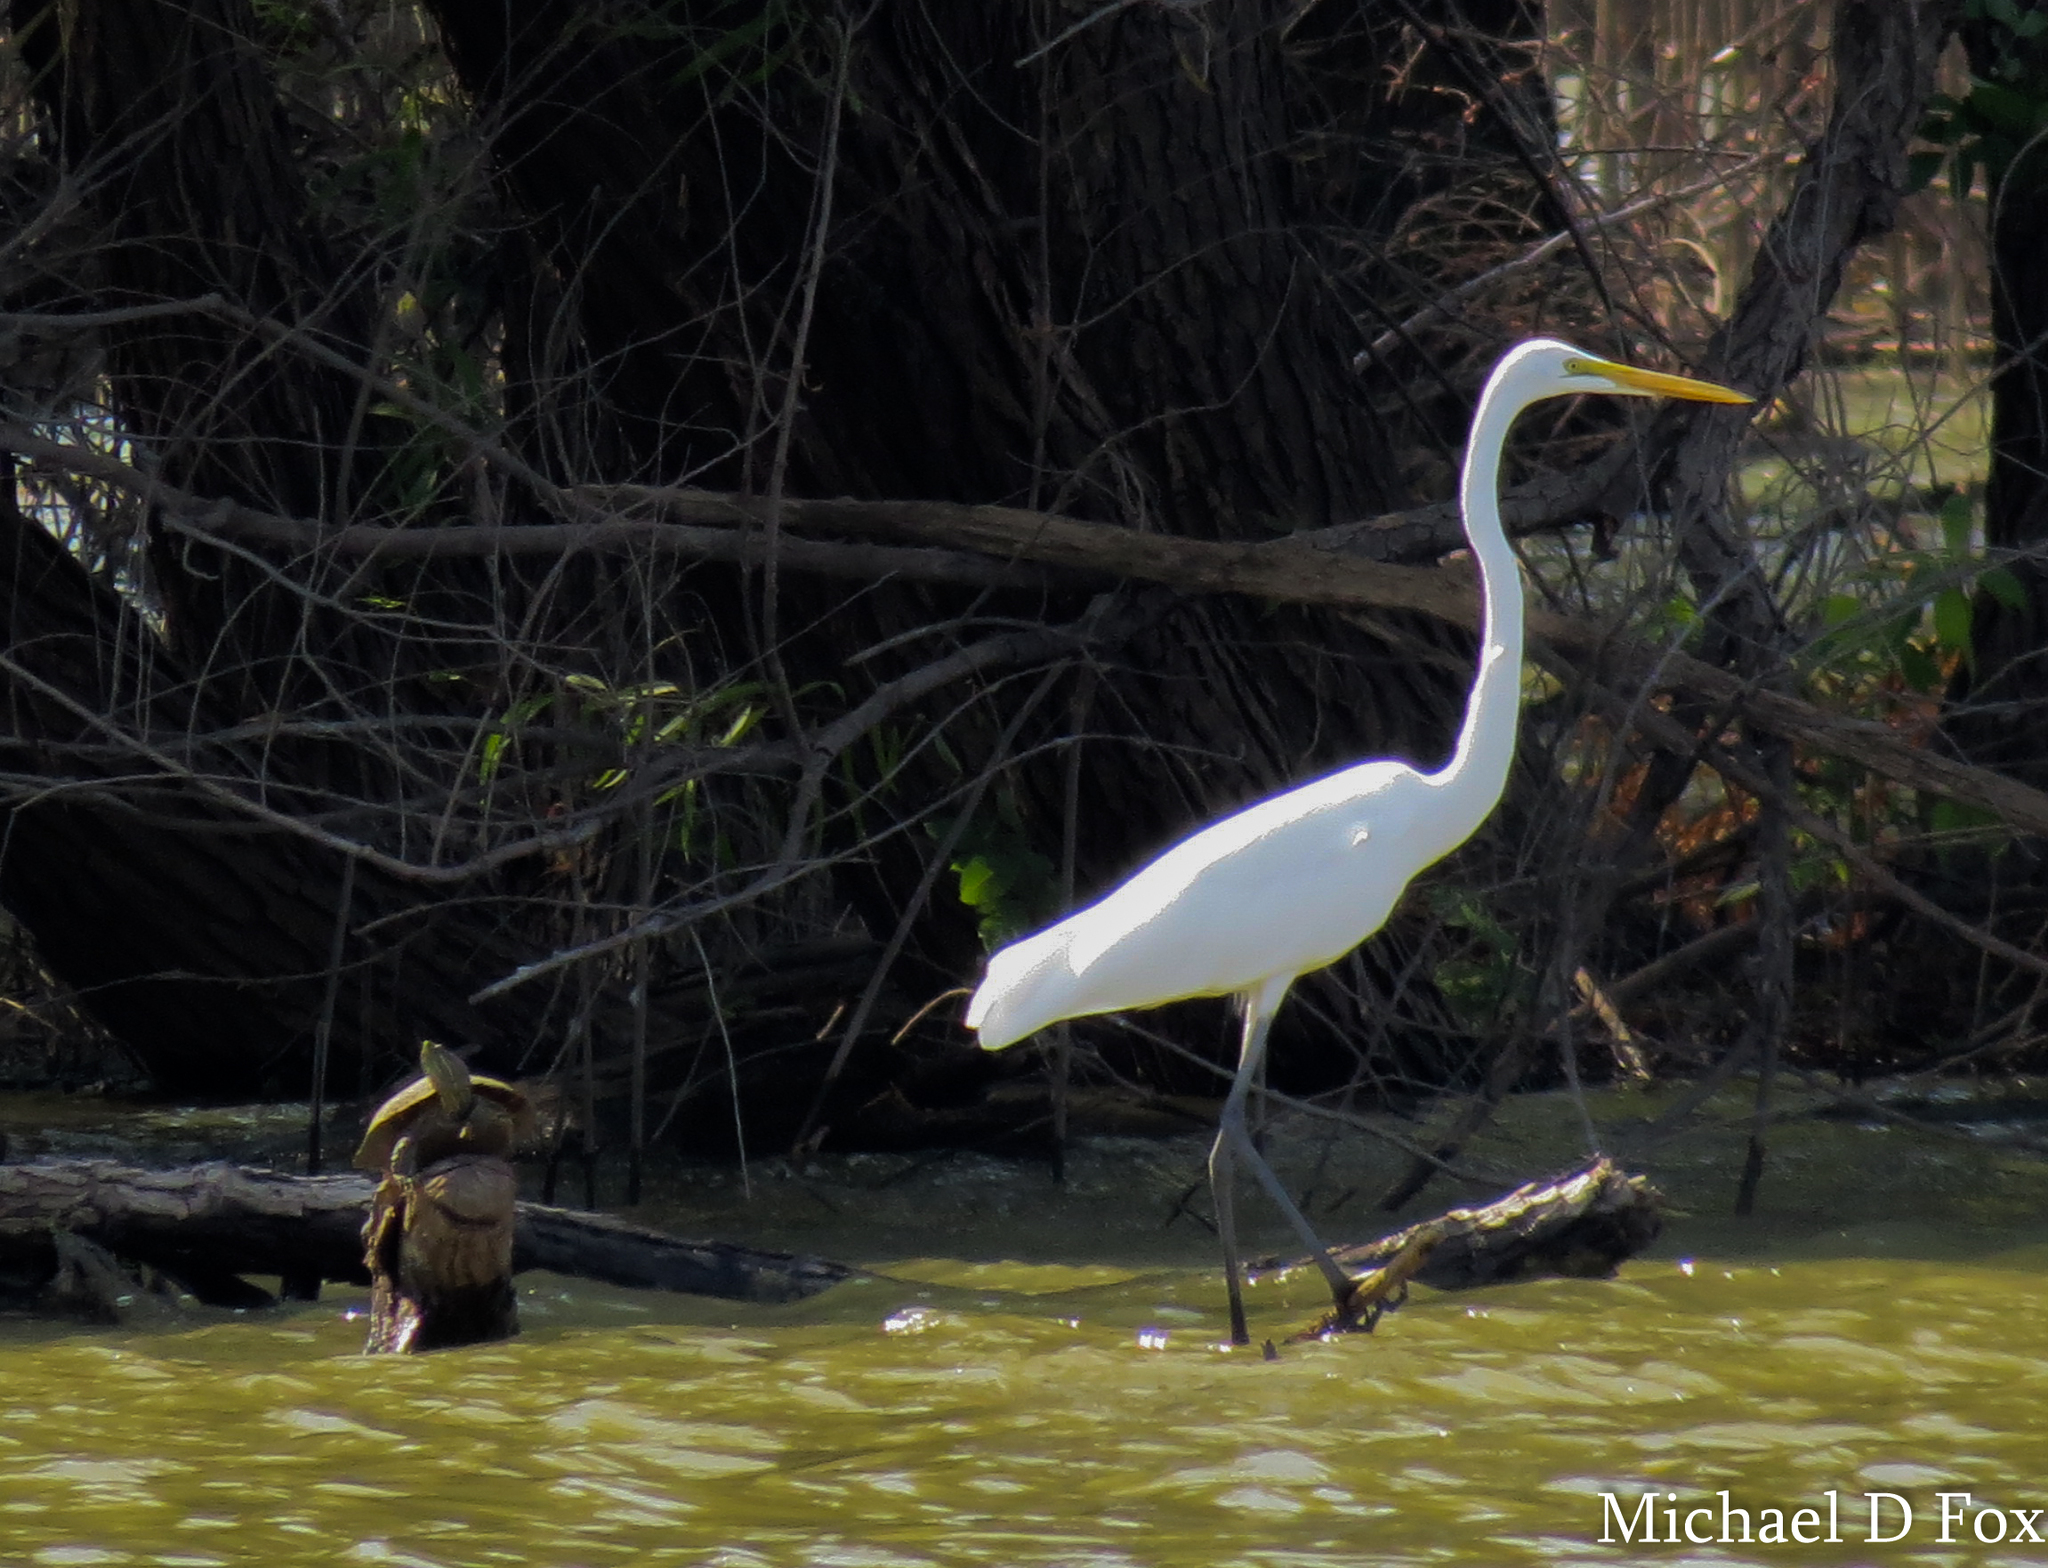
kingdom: Animalia
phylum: Chordata
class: Aves
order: Pelecaniformes
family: Ardeidae
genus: Ardea
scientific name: Ardea alba
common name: Great egret
